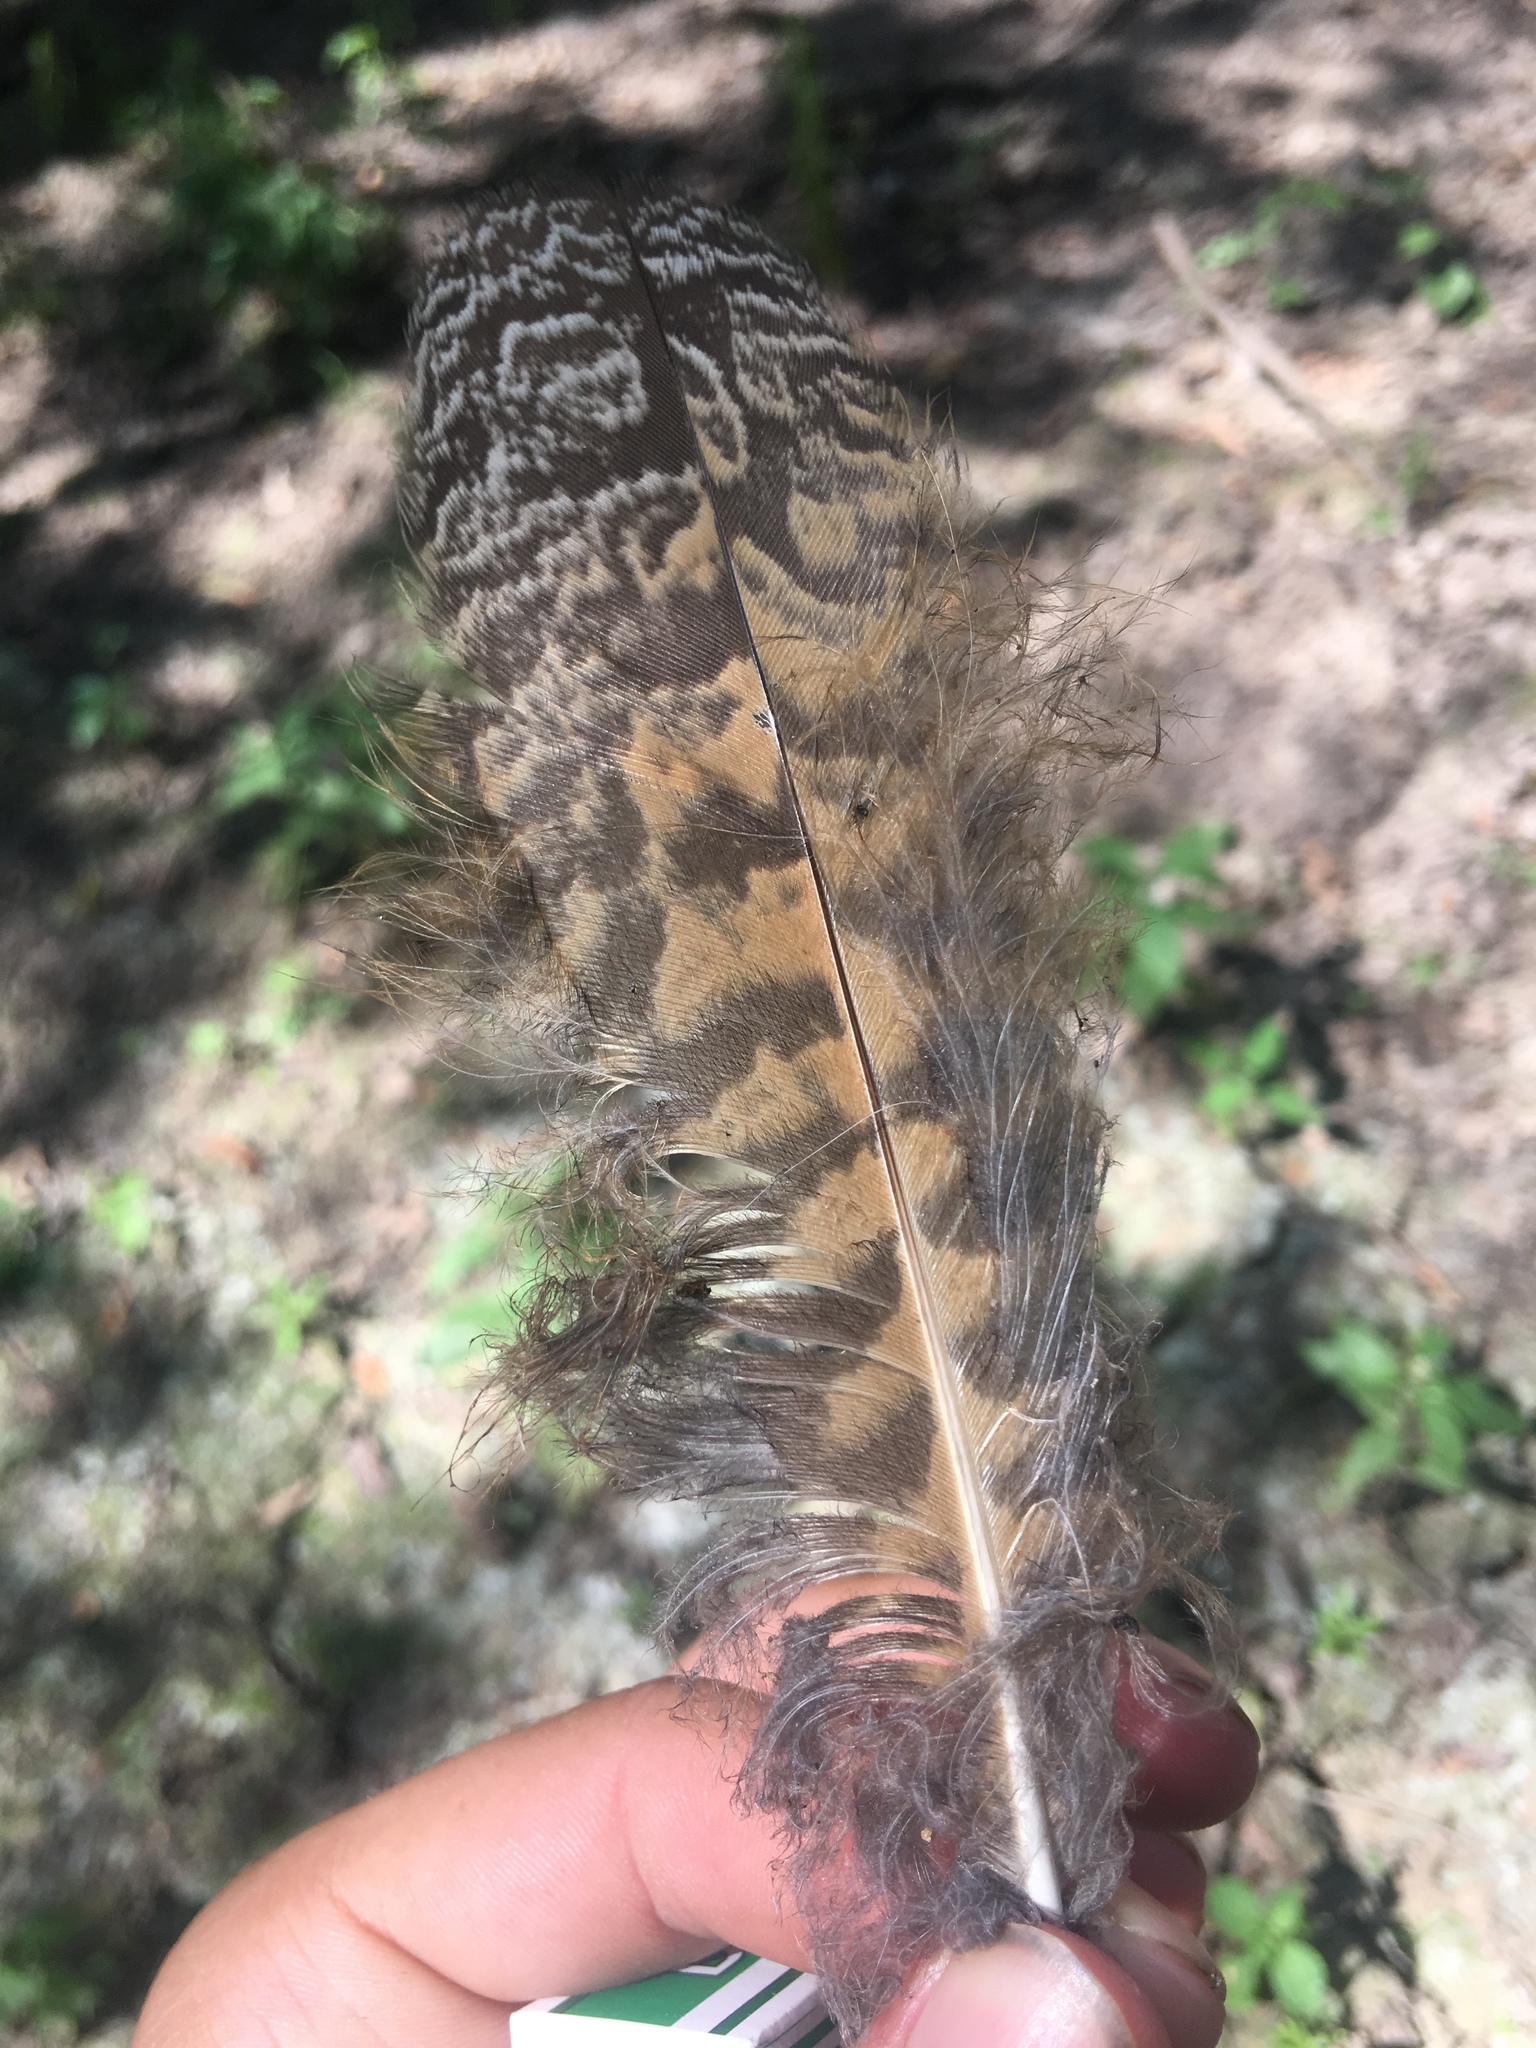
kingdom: Animalia
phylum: Chordata
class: Aves
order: Strigiformes
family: Strigidae
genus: Bubo
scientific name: Bubo virginianus
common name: Great horned owl
